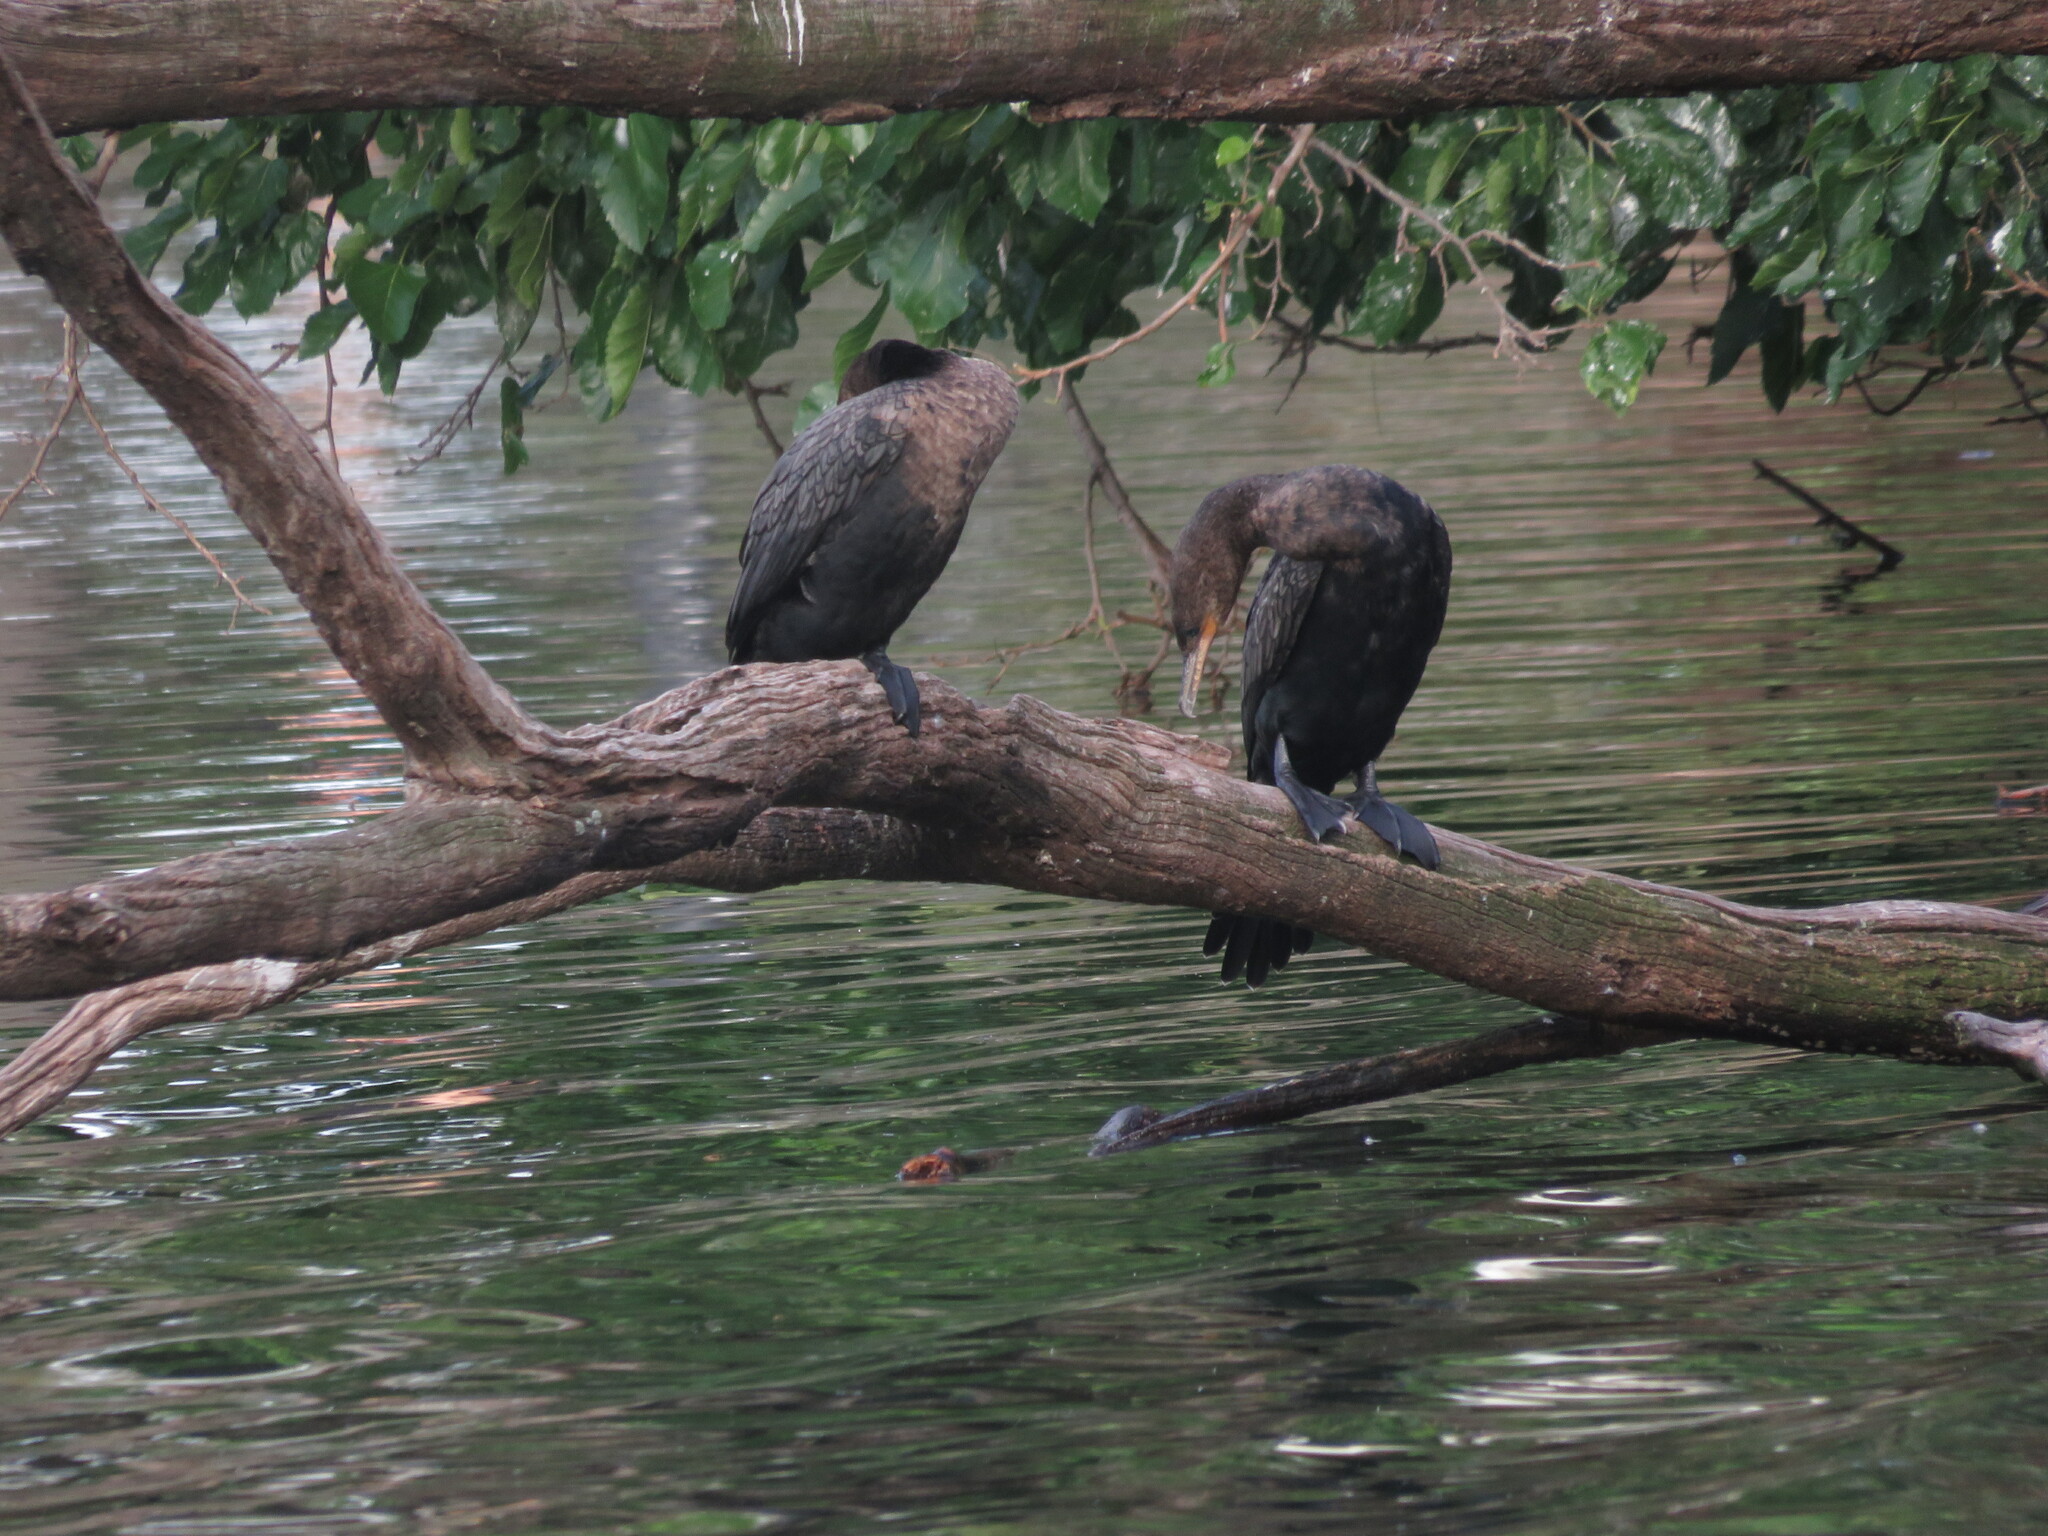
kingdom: Animalia
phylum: Chordata
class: Aves
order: Suliformes
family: Phalacrocoracidae
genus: Phalacrocorax
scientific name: Phalacrocorax brasilianus
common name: Neotropic cormorant
